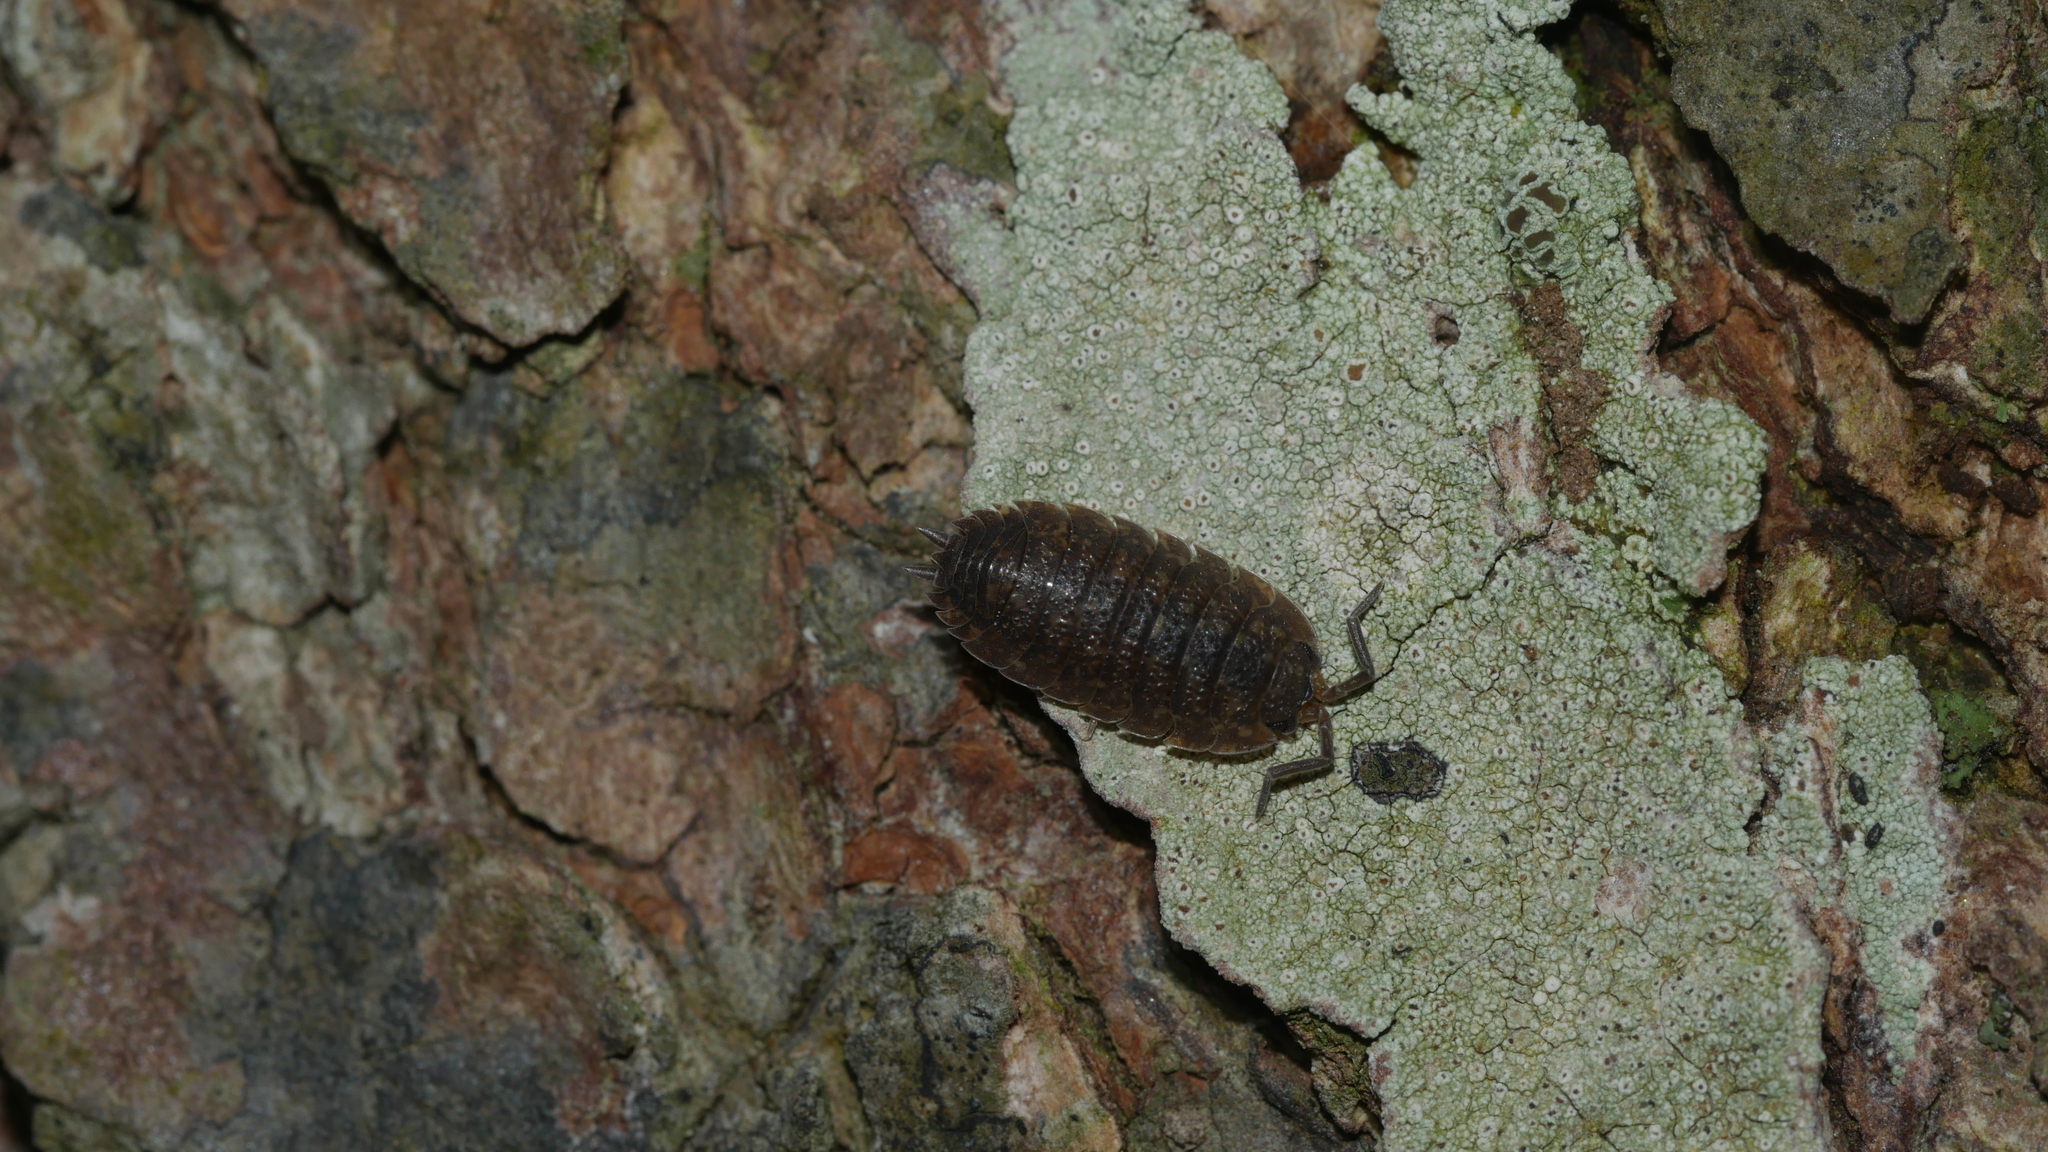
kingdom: Animalia
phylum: Arthropoda
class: Malacostraca
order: Isopoda
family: Porcellionidae
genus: Porcellio
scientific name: Porcellio scaber
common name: Common rough woodlouse
